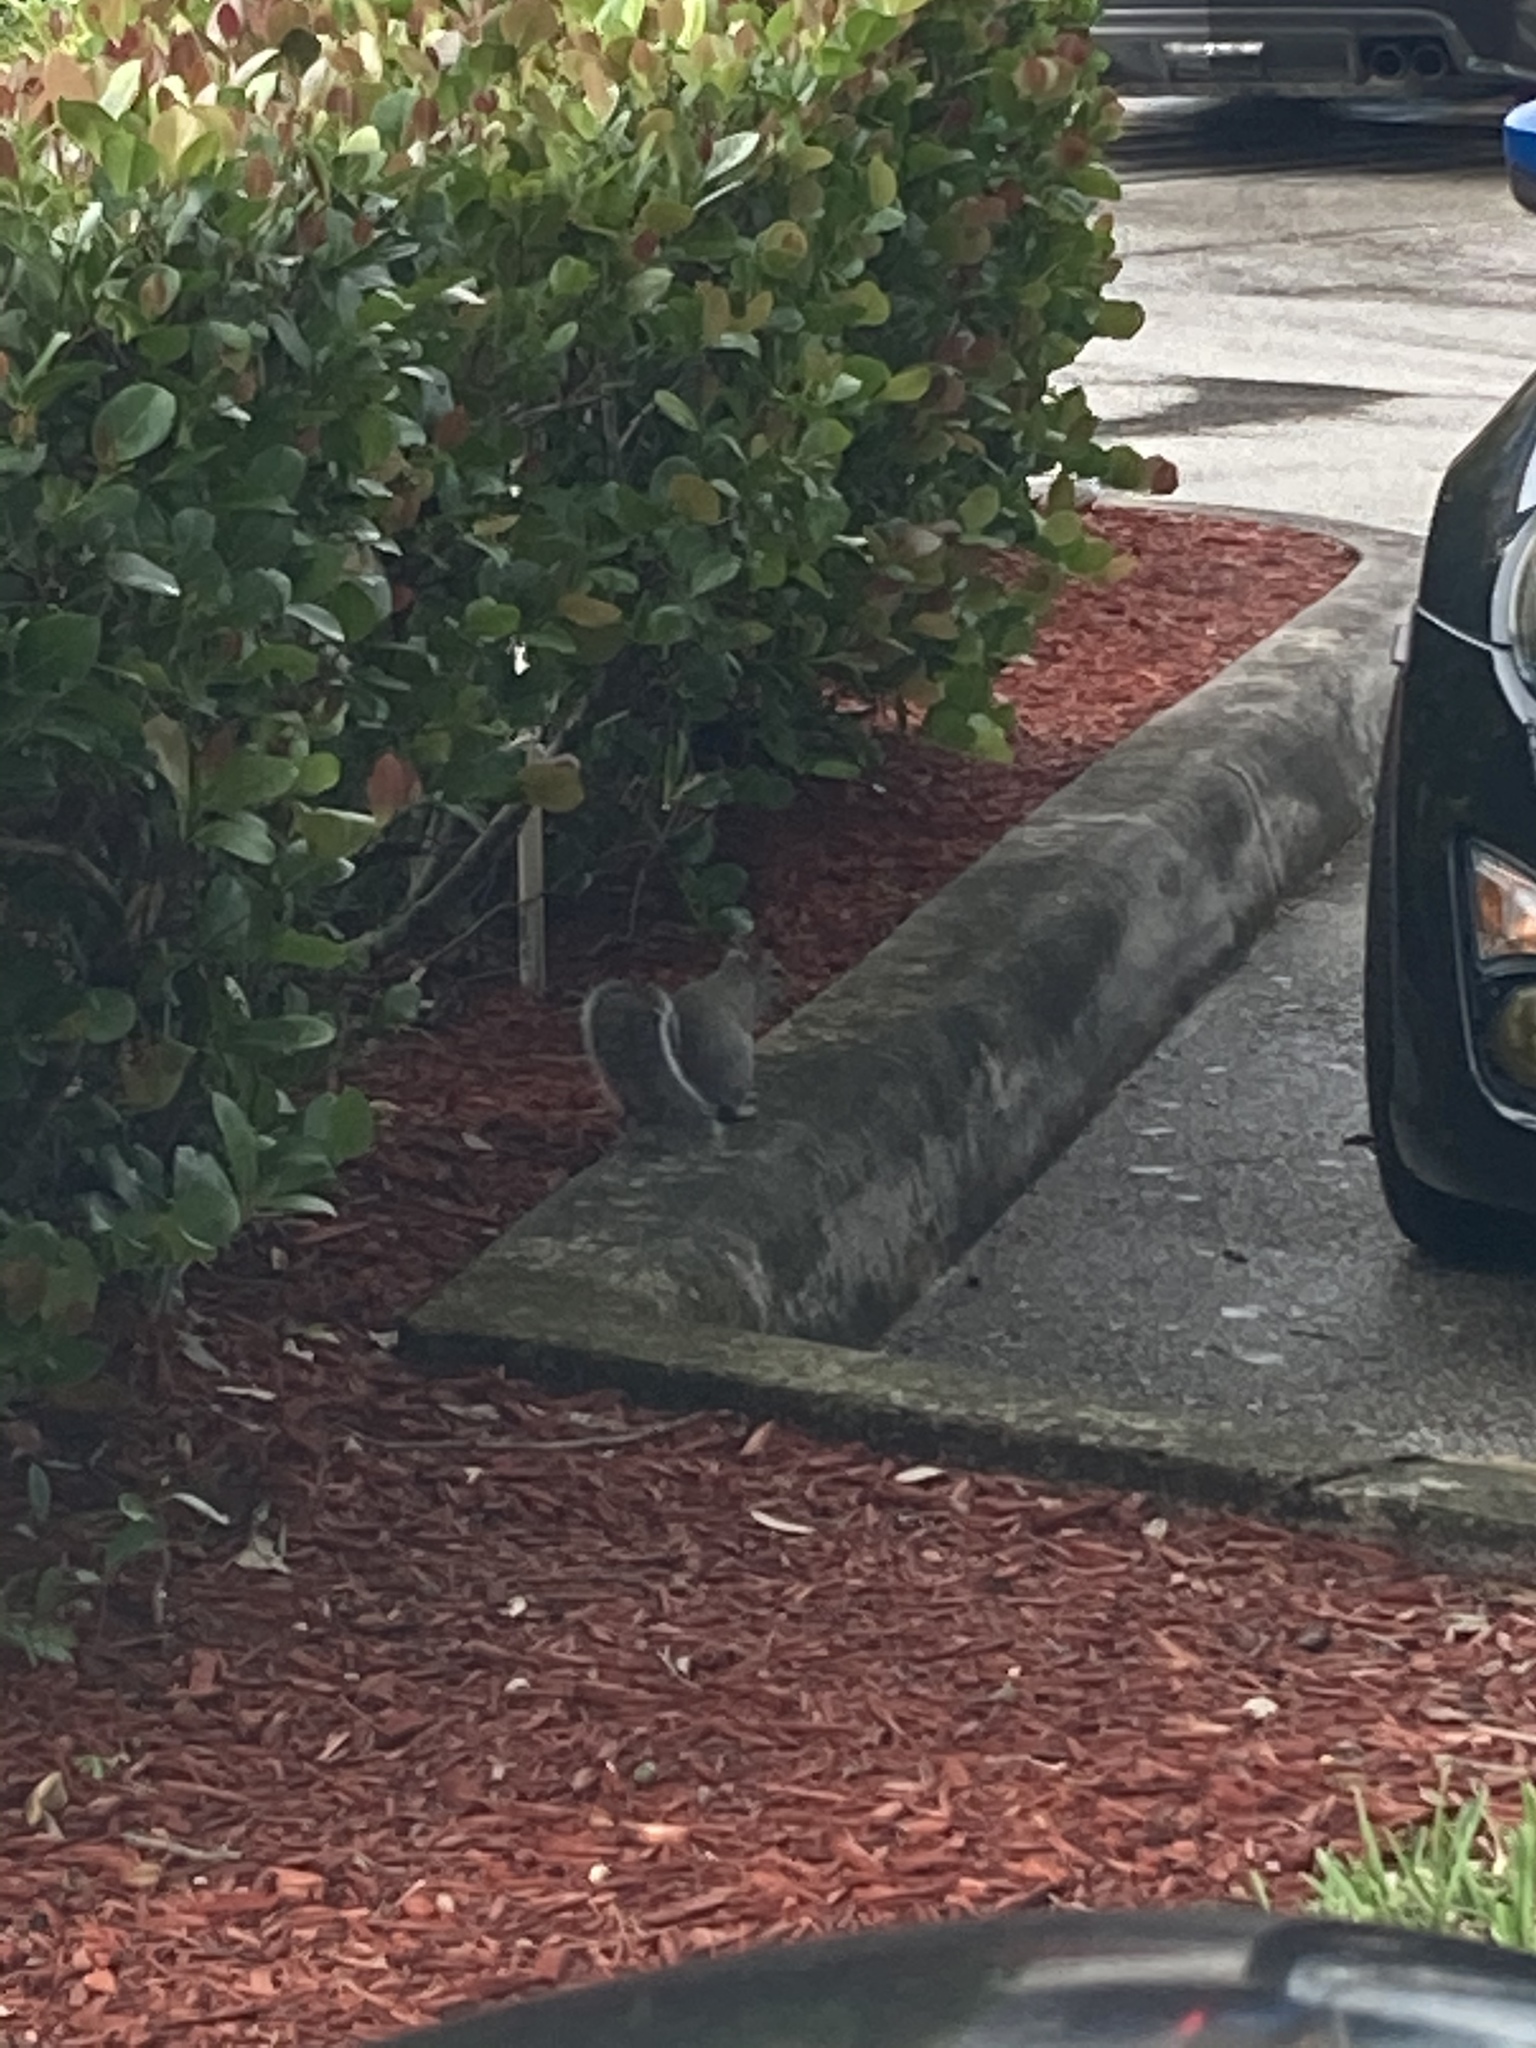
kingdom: Animalia
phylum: Chordata
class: Mammalia
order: Rodentia
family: Sciuridae
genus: Sciurus
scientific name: Sciurus carolinensis
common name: Eastern gray squirrel
